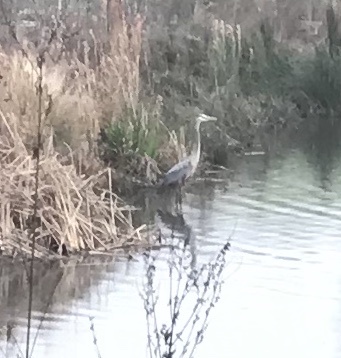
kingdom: Animalia
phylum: Chordata
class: Aves
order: Pelecaniformes
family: Ardeidae
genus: Ardea
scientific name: Ardea herodias
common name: Great blue heron
